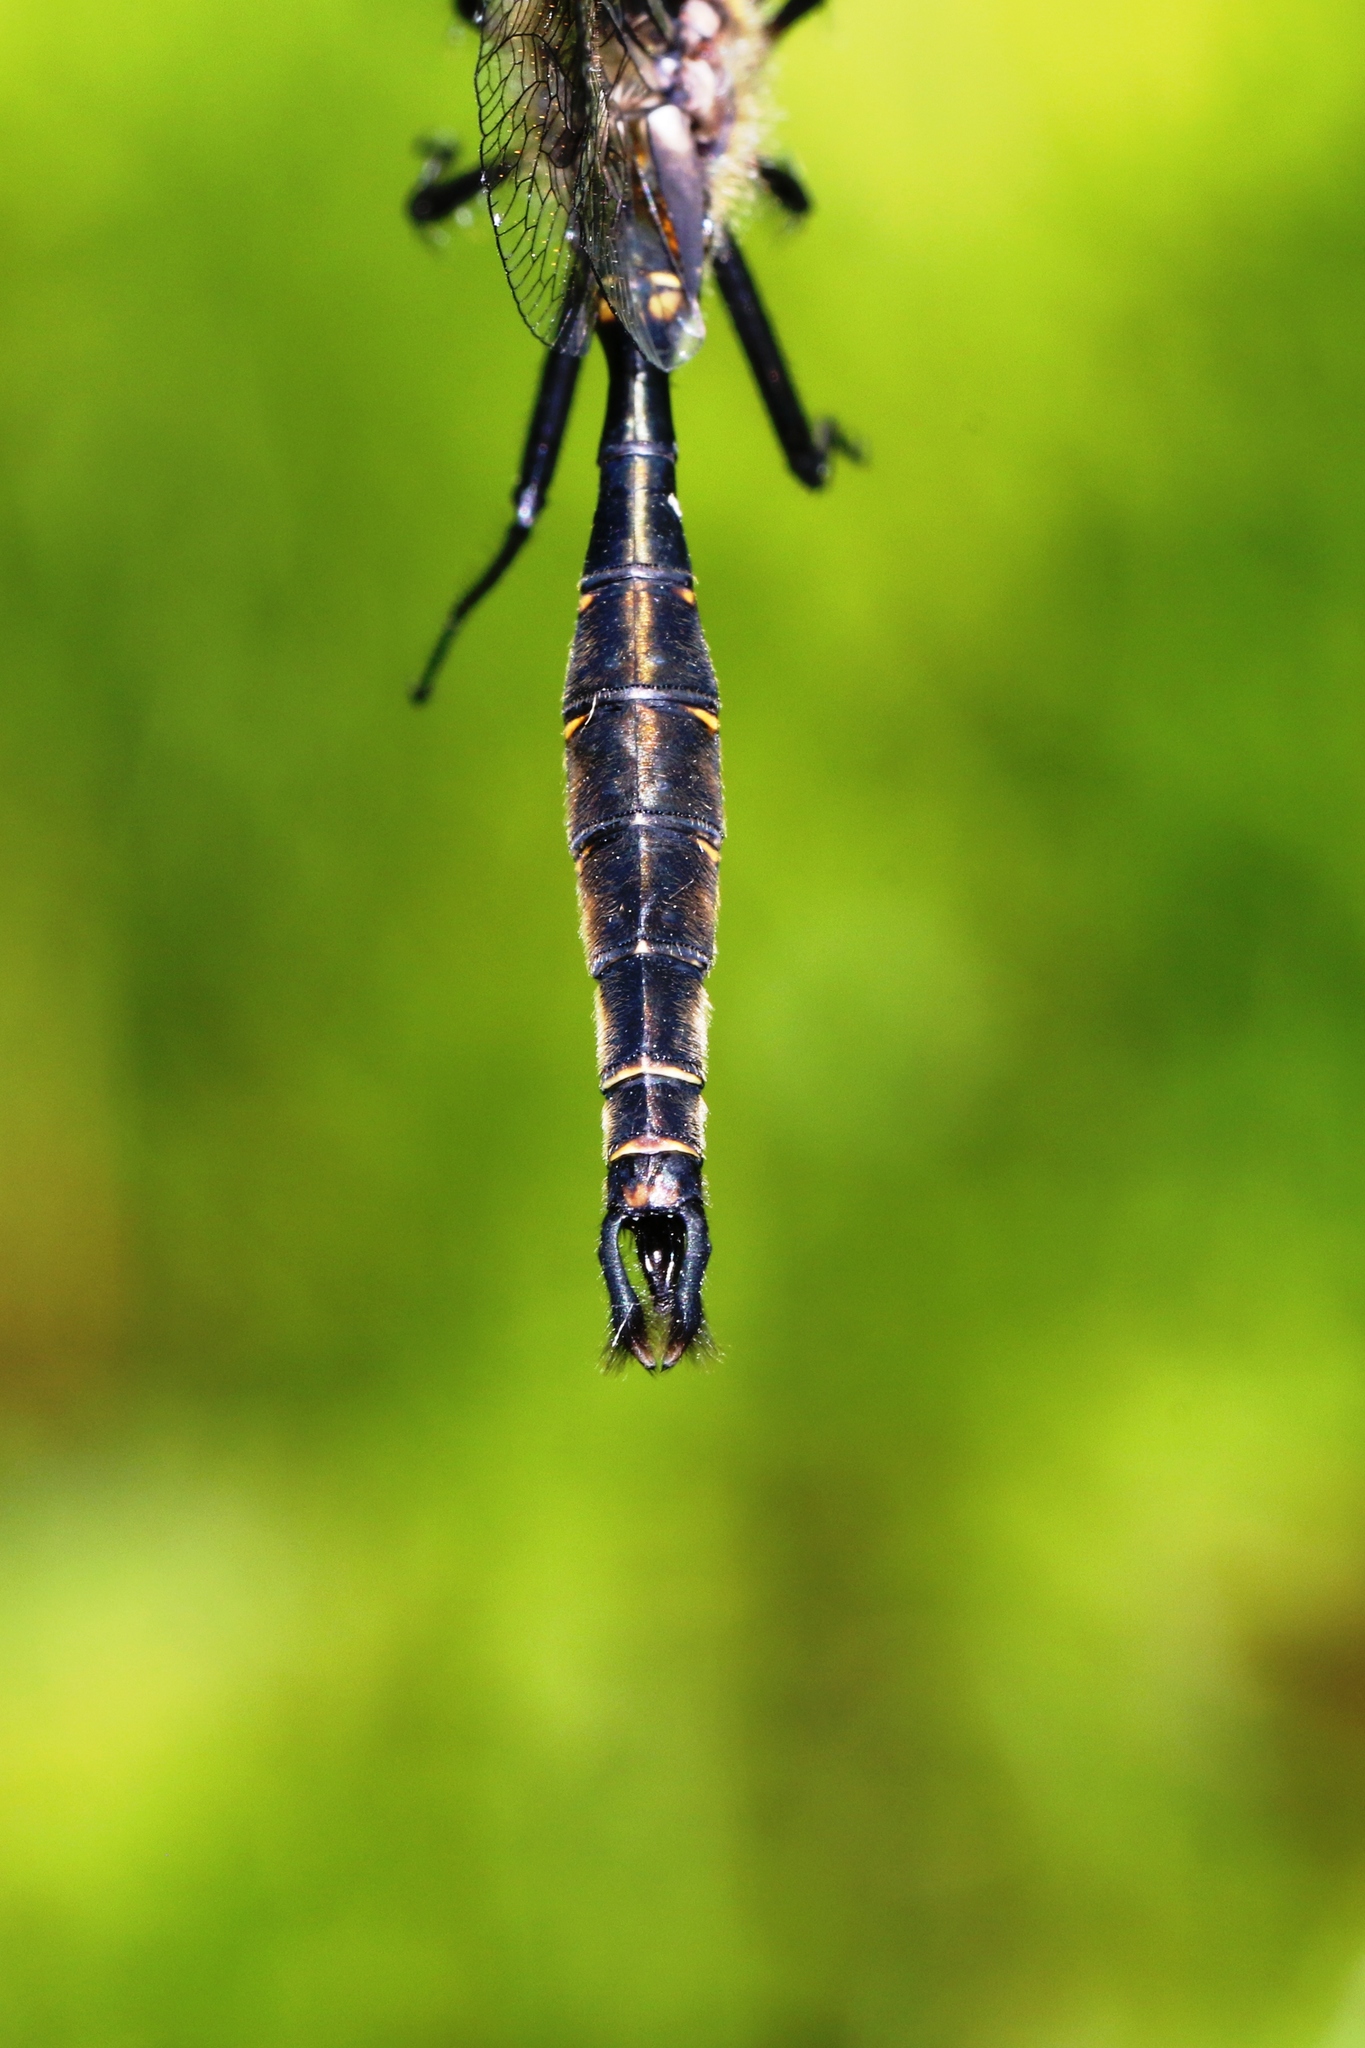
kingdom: Animalia
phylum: Arthropoda
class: Insecta
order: Odonata
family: Corduliidae
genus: Somatochlora
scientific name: Somatochlora walshii
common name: Brush-tipped emerald
